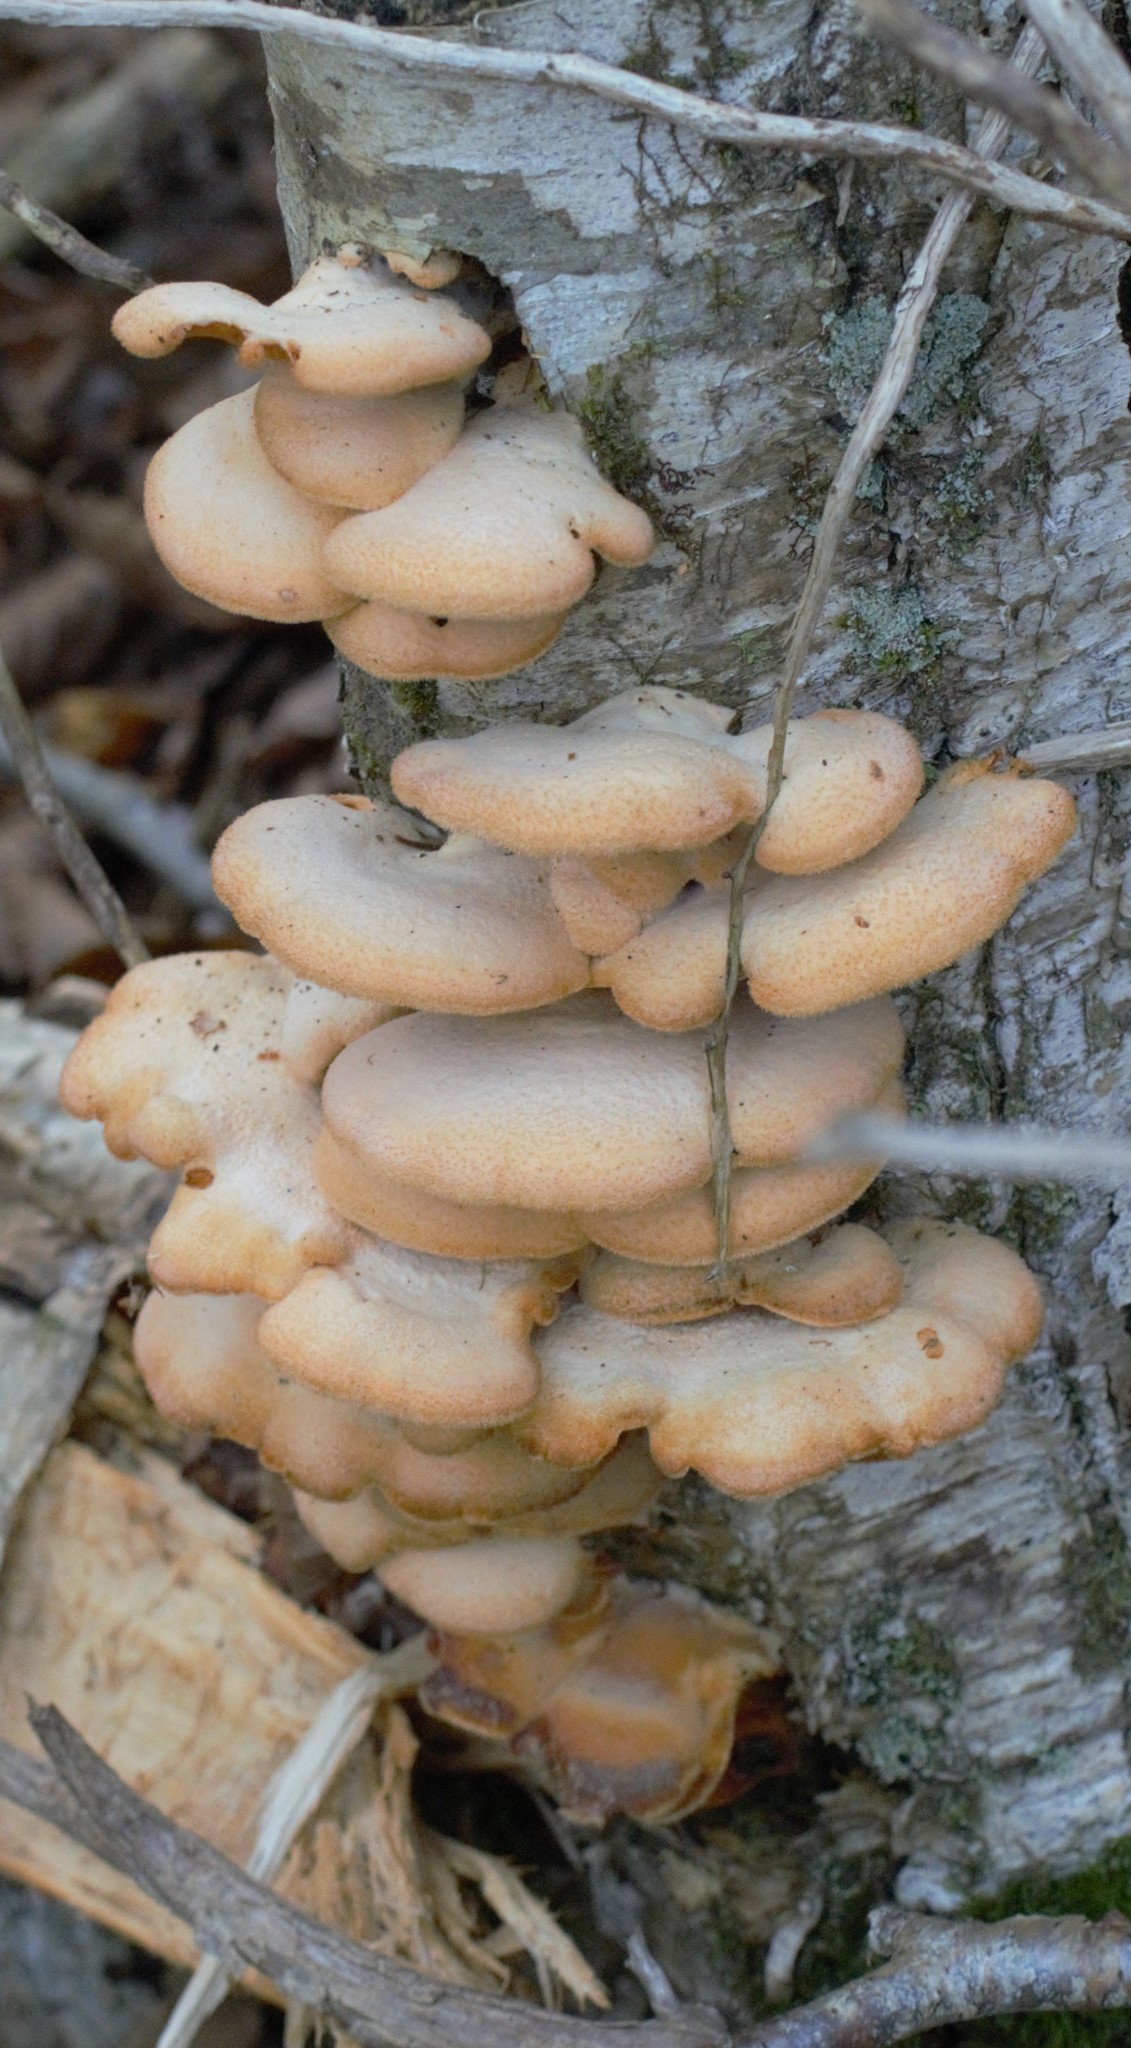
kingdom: Fungi
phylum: Basidiomycota
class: Agaricomycetes
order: Agaricales
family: Phyllotopsidaceae
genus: Phyllotopsis
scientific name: Phyllotopsis nidulans
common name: Orange mock oyster
